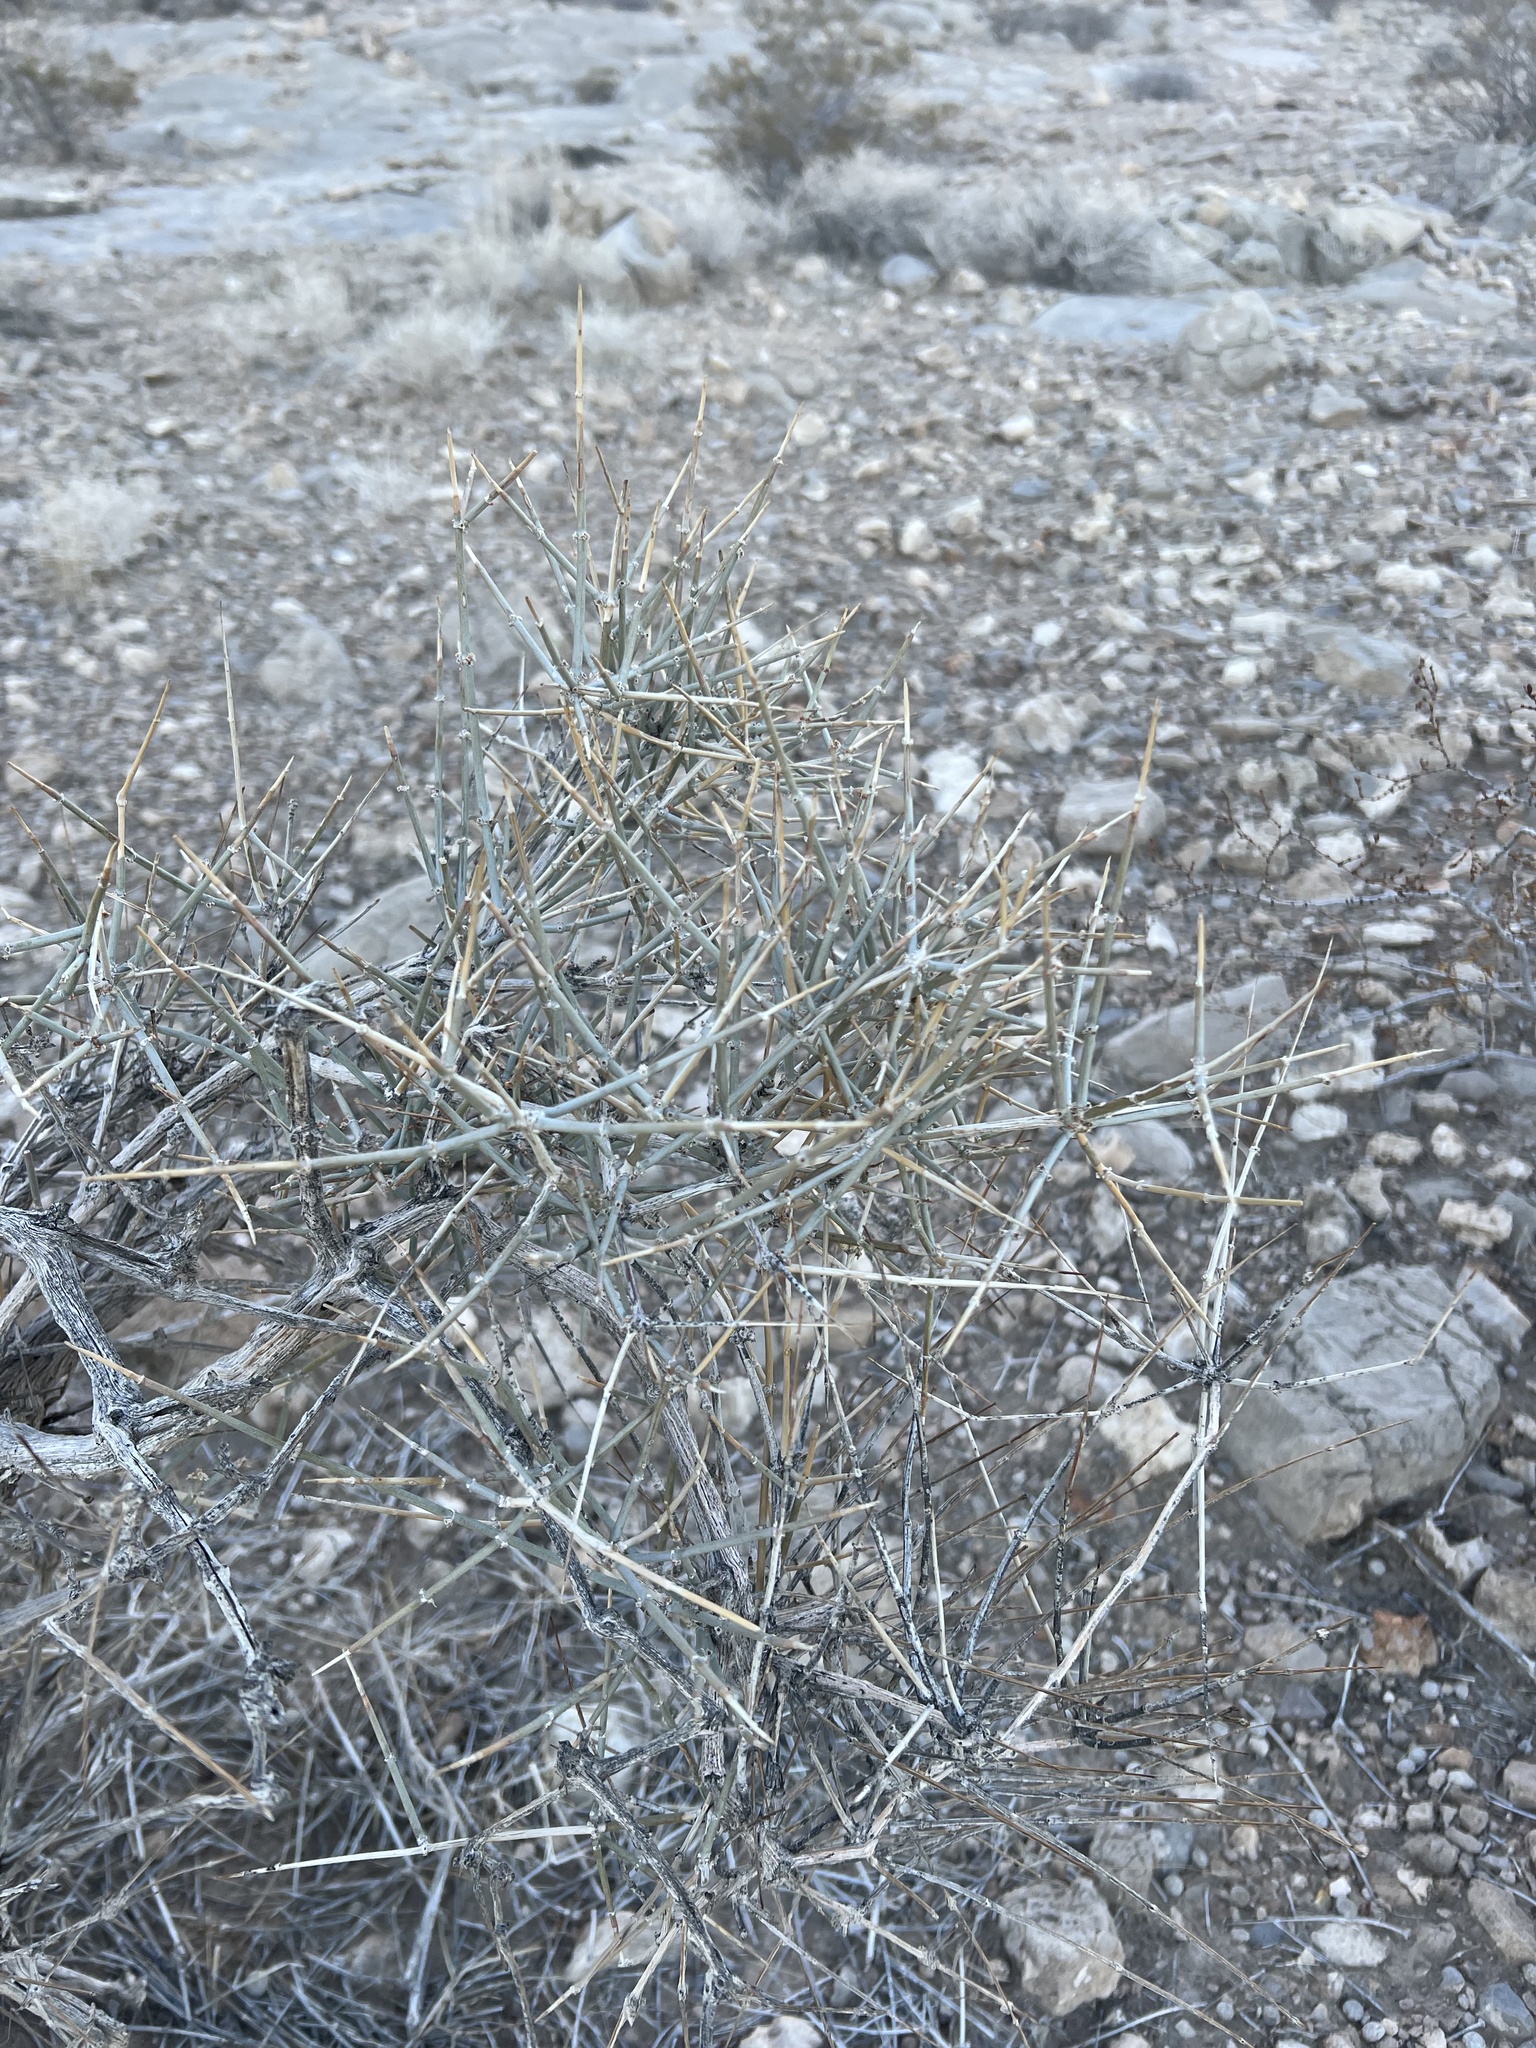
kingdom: Plantae
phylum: Tracheophyta
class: Gnetopsida
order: Ephedrales
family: Ephedraceae
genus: Ephedra
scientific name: Ephedra nevadensis
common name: Gray ephedra
